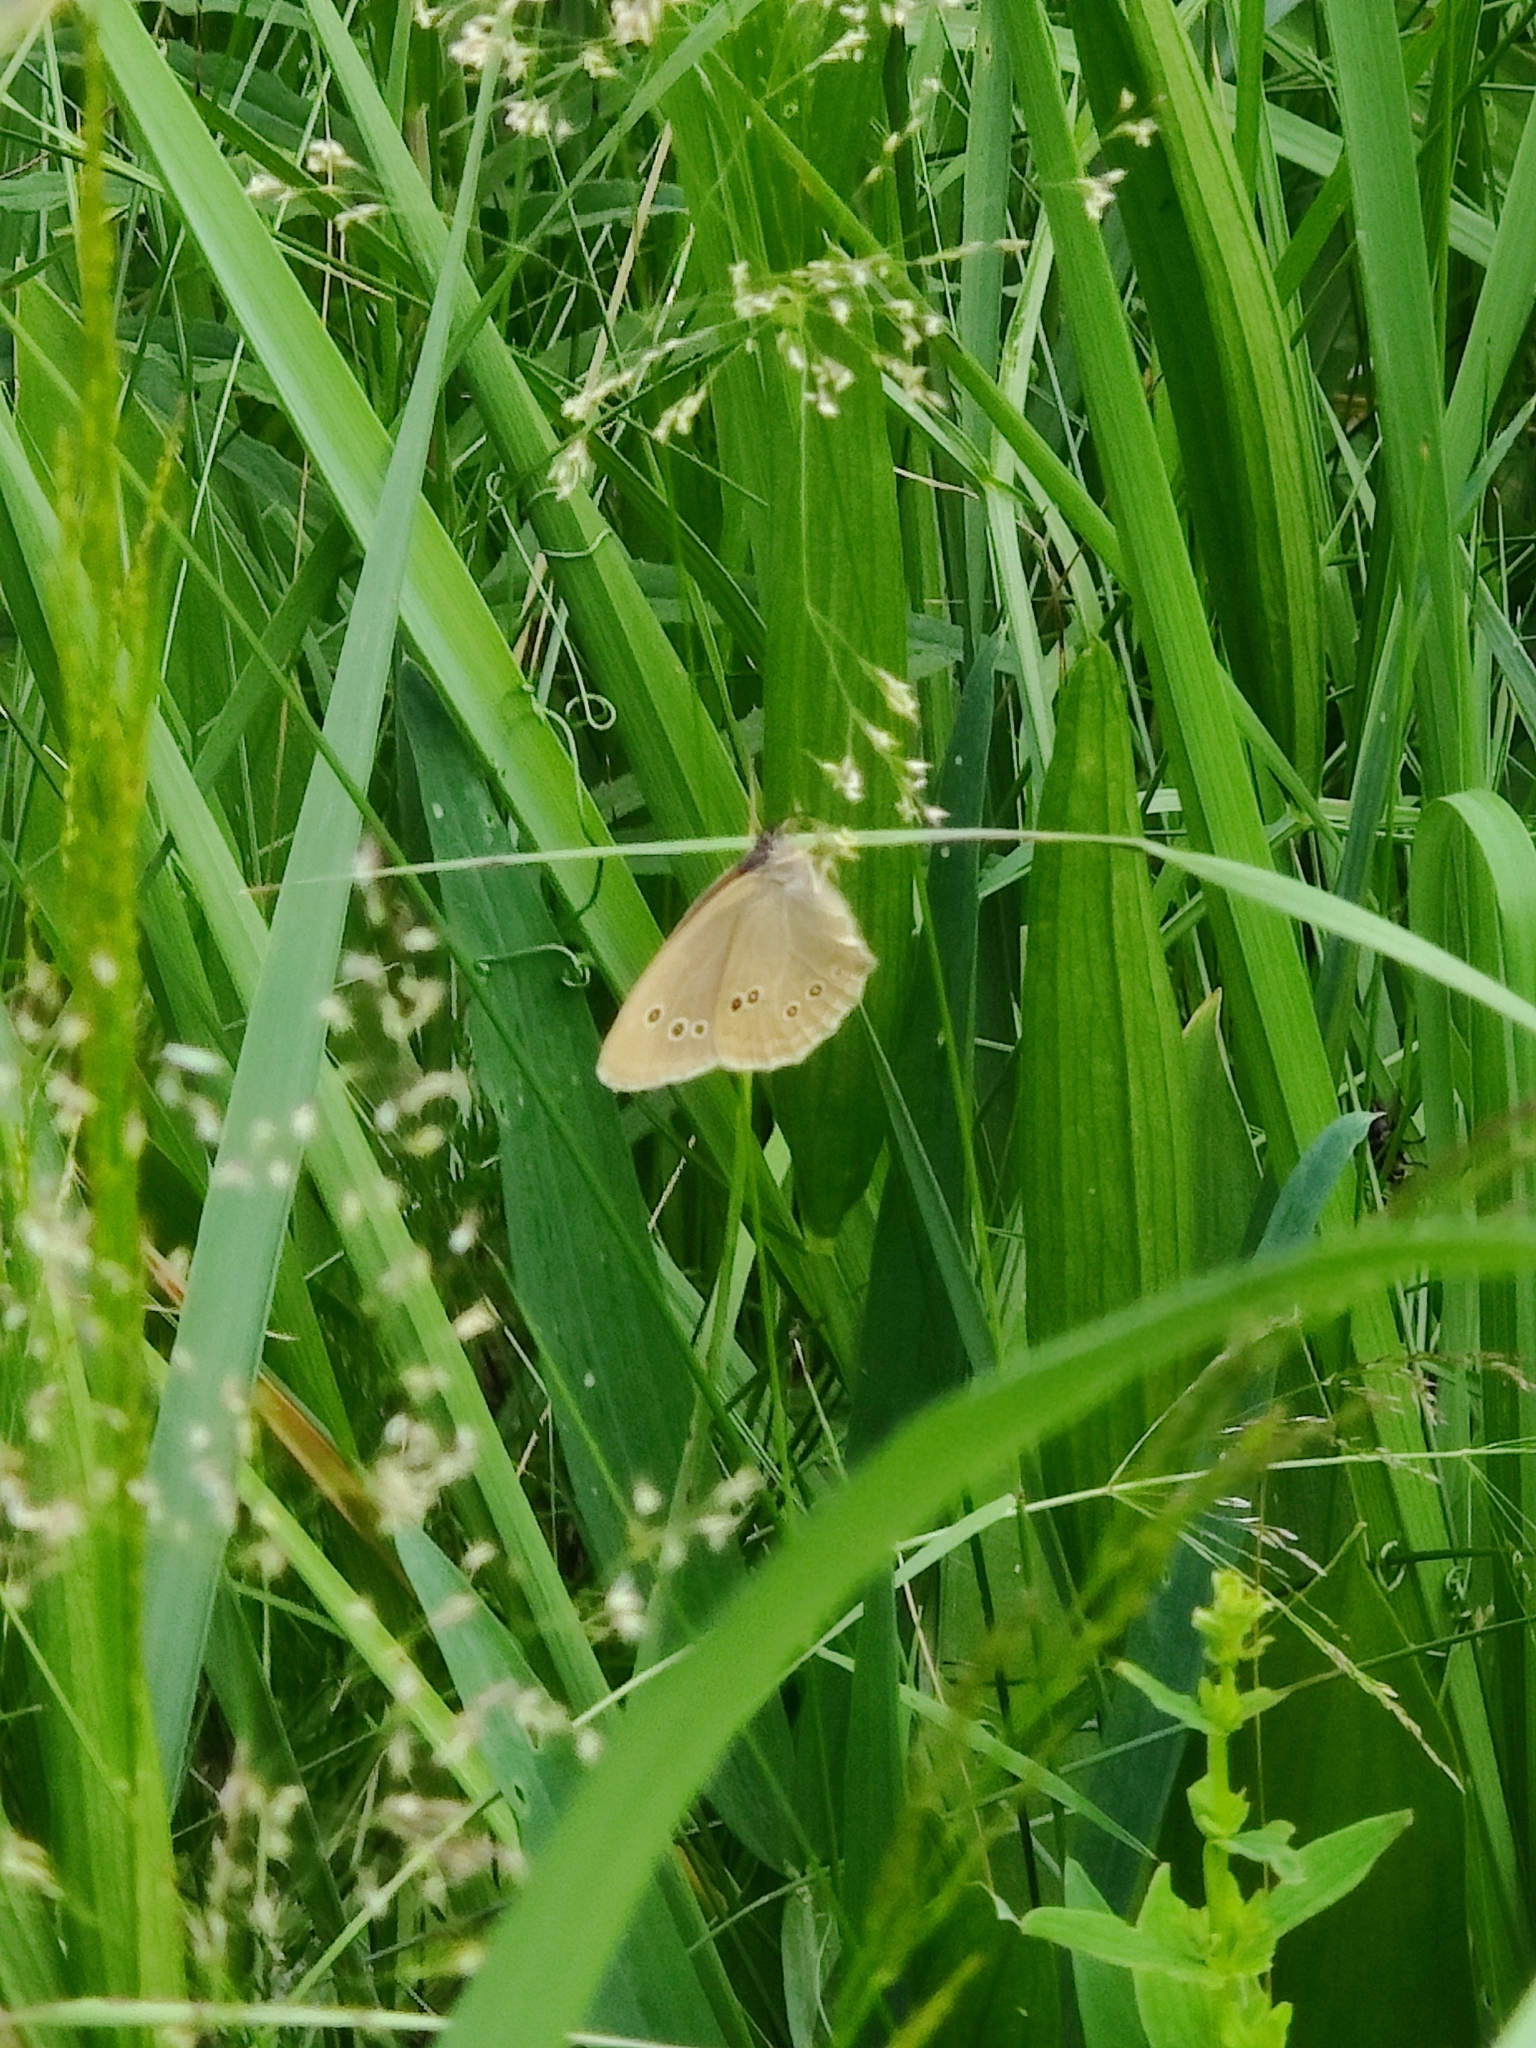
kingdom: Animalia
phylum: Arthropoda
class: Insecta
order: Lepidoptera
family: Nymphalidae
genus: Aphantopus
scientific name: Aphantopus hyperantus
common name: Ringlet
